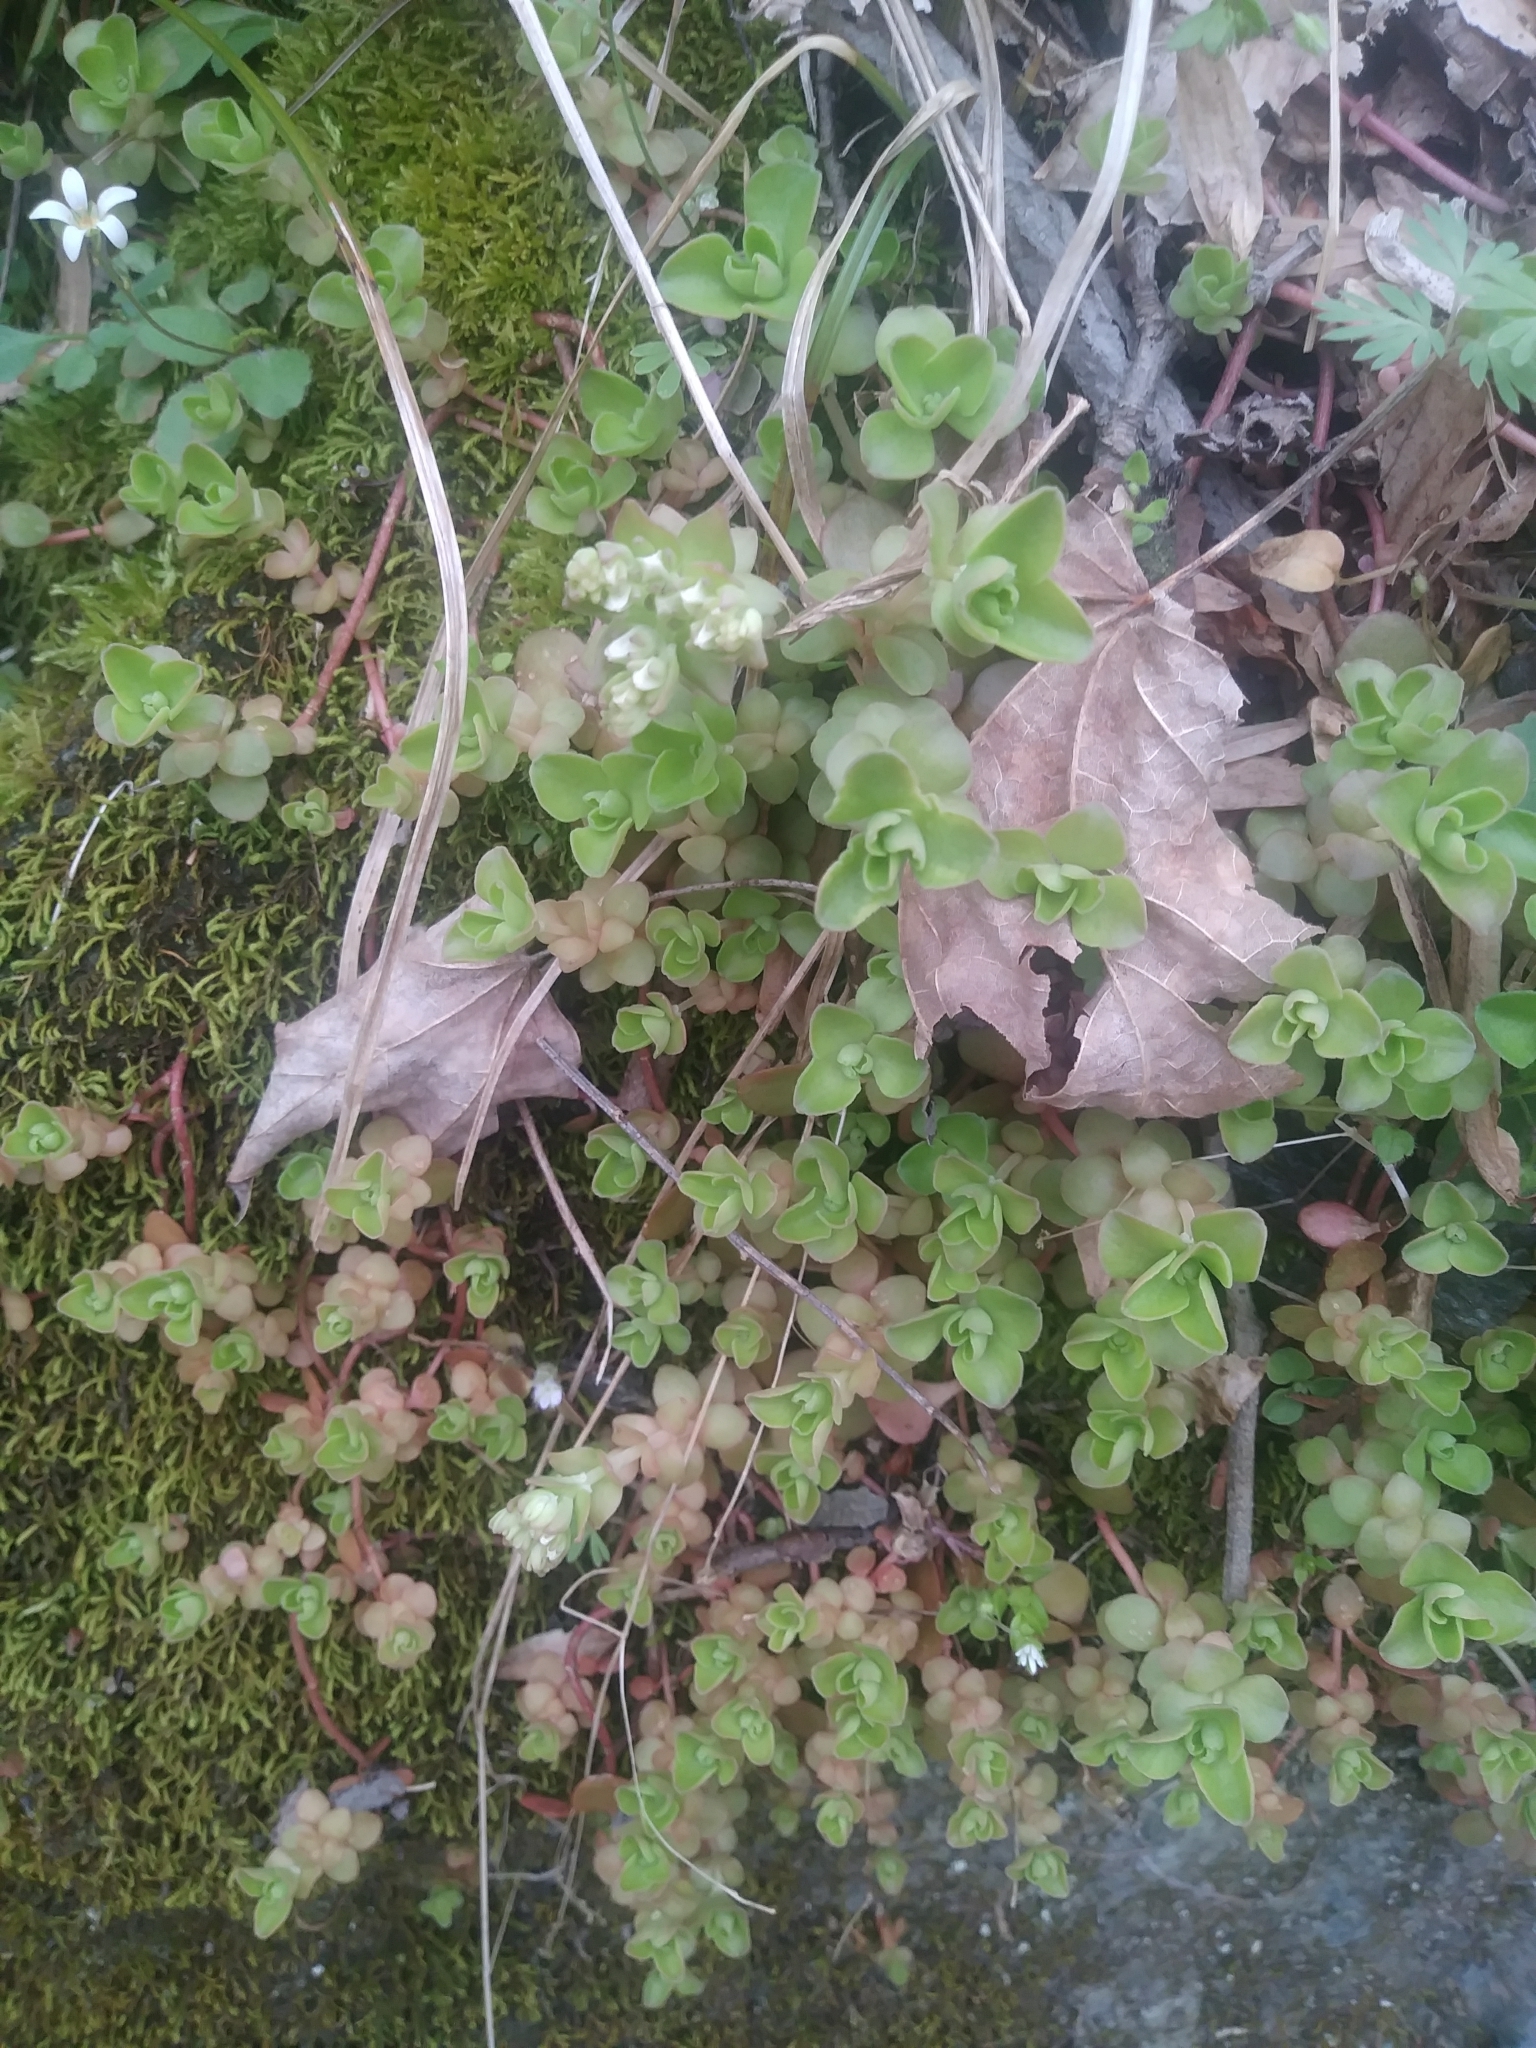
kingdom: Plantae
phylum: Tracheophyta
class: Magnoliopsida
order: Saxifragales
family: Crassulaceae
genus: Sedum
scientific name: Sedum ternatum
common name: Wild stonecrop
